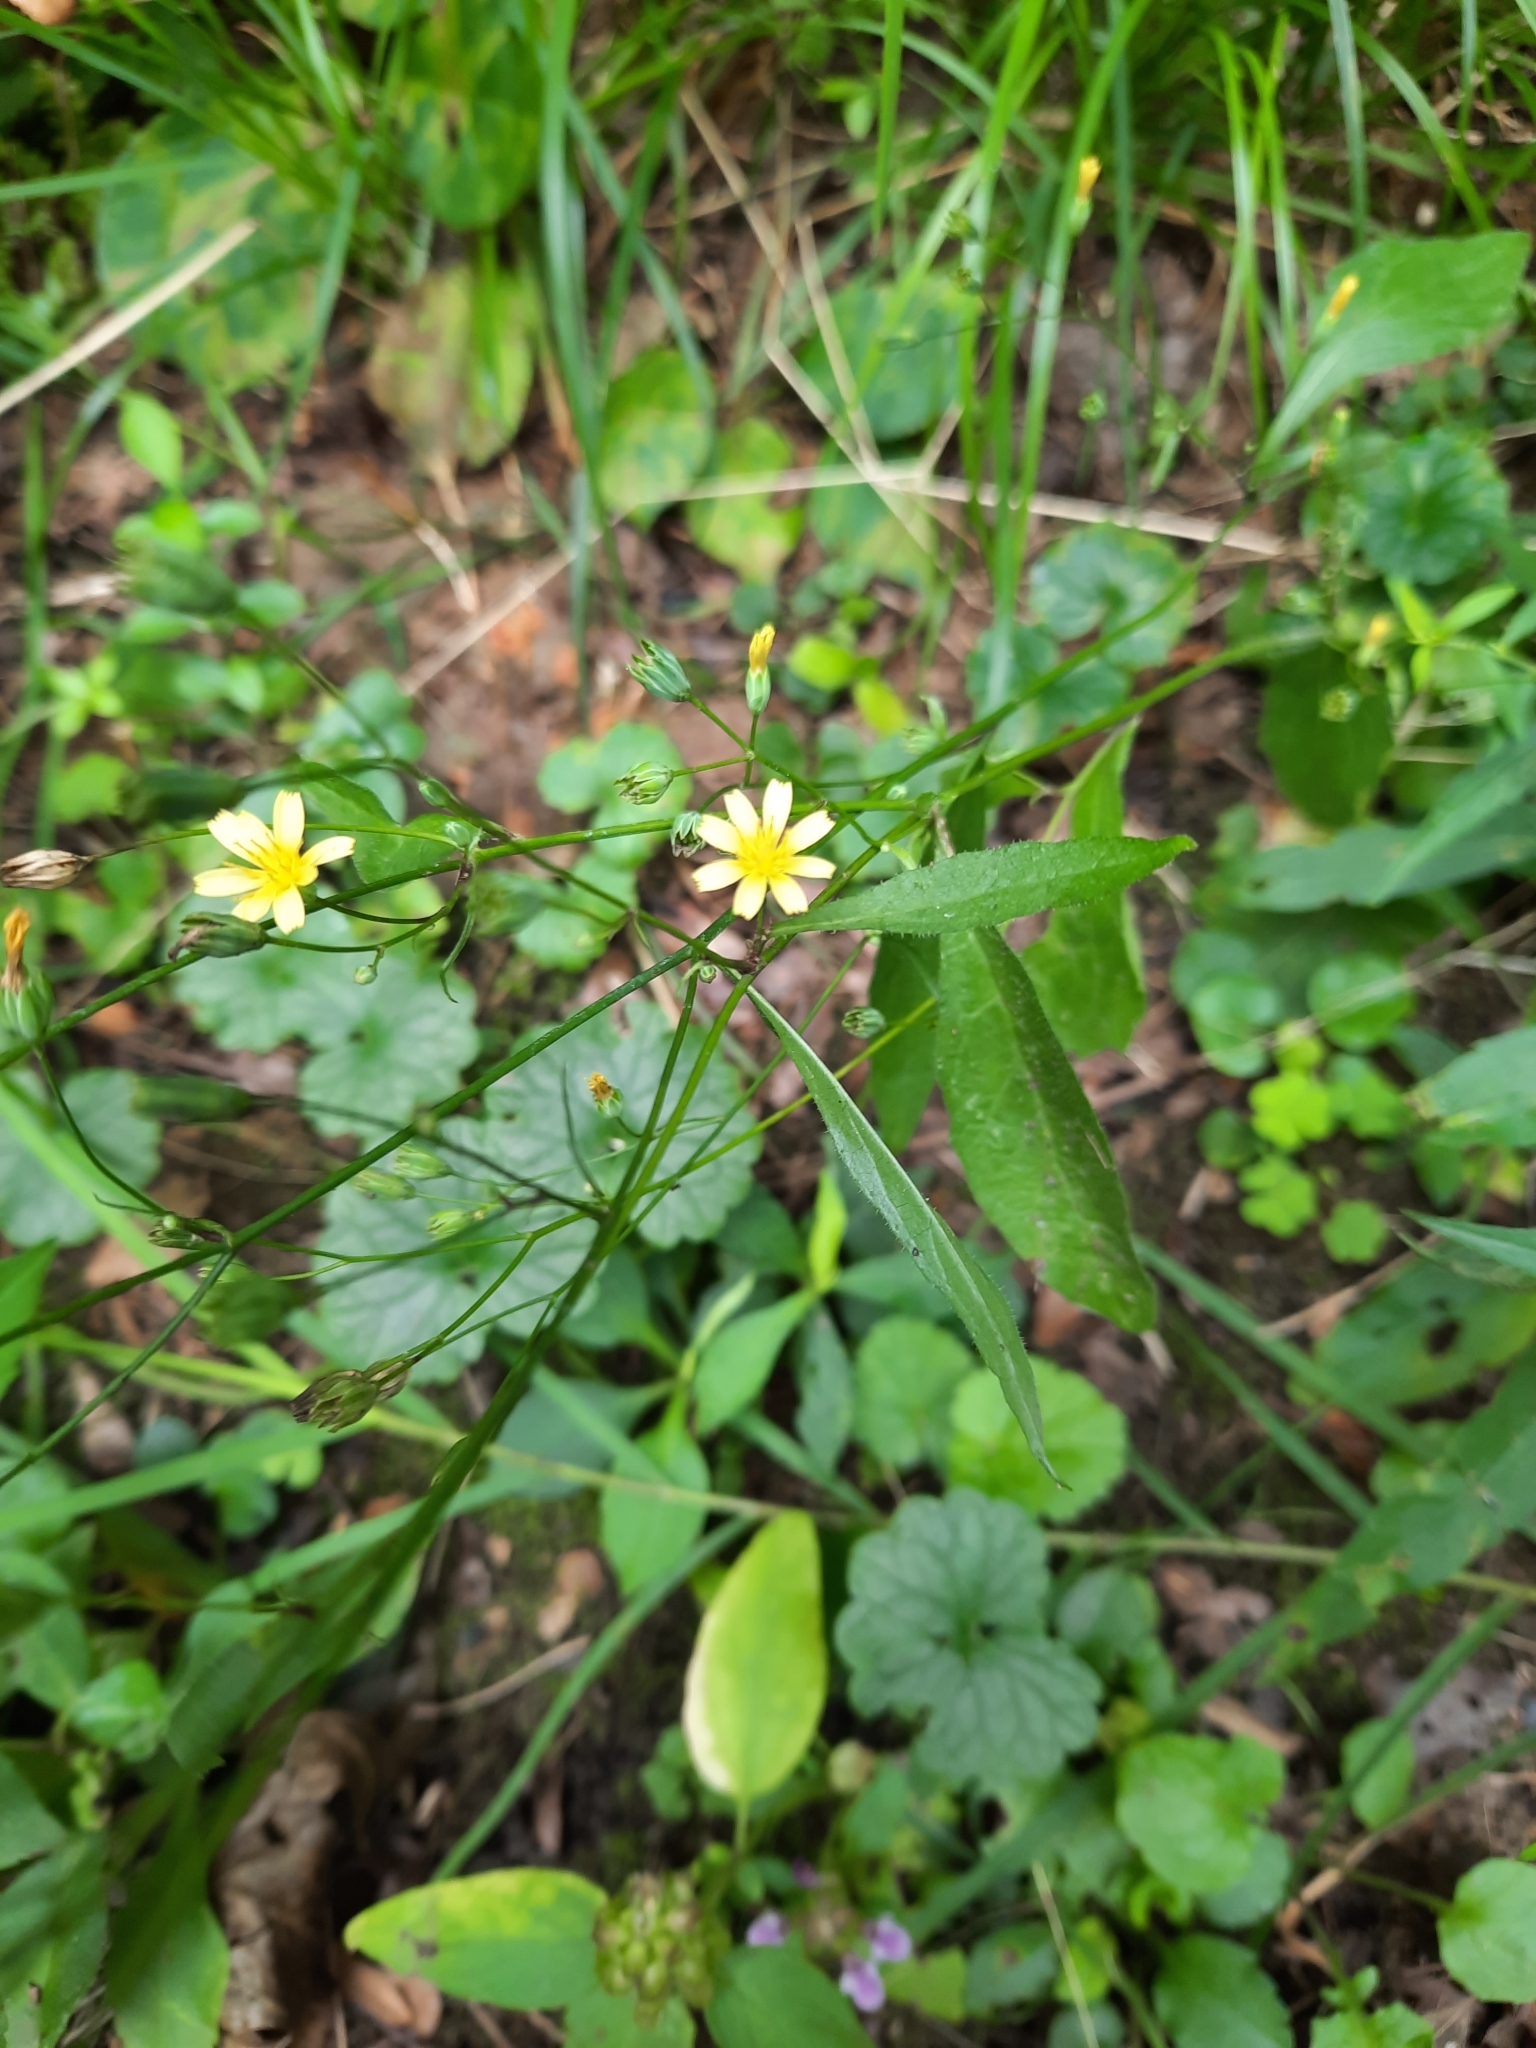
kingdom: Plantae
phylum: Tracheophyta
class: Magnoliopsida
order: Asterales
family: Asteraceae
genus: Lapsana
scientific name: Lapsana communis
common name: Nipplewort
